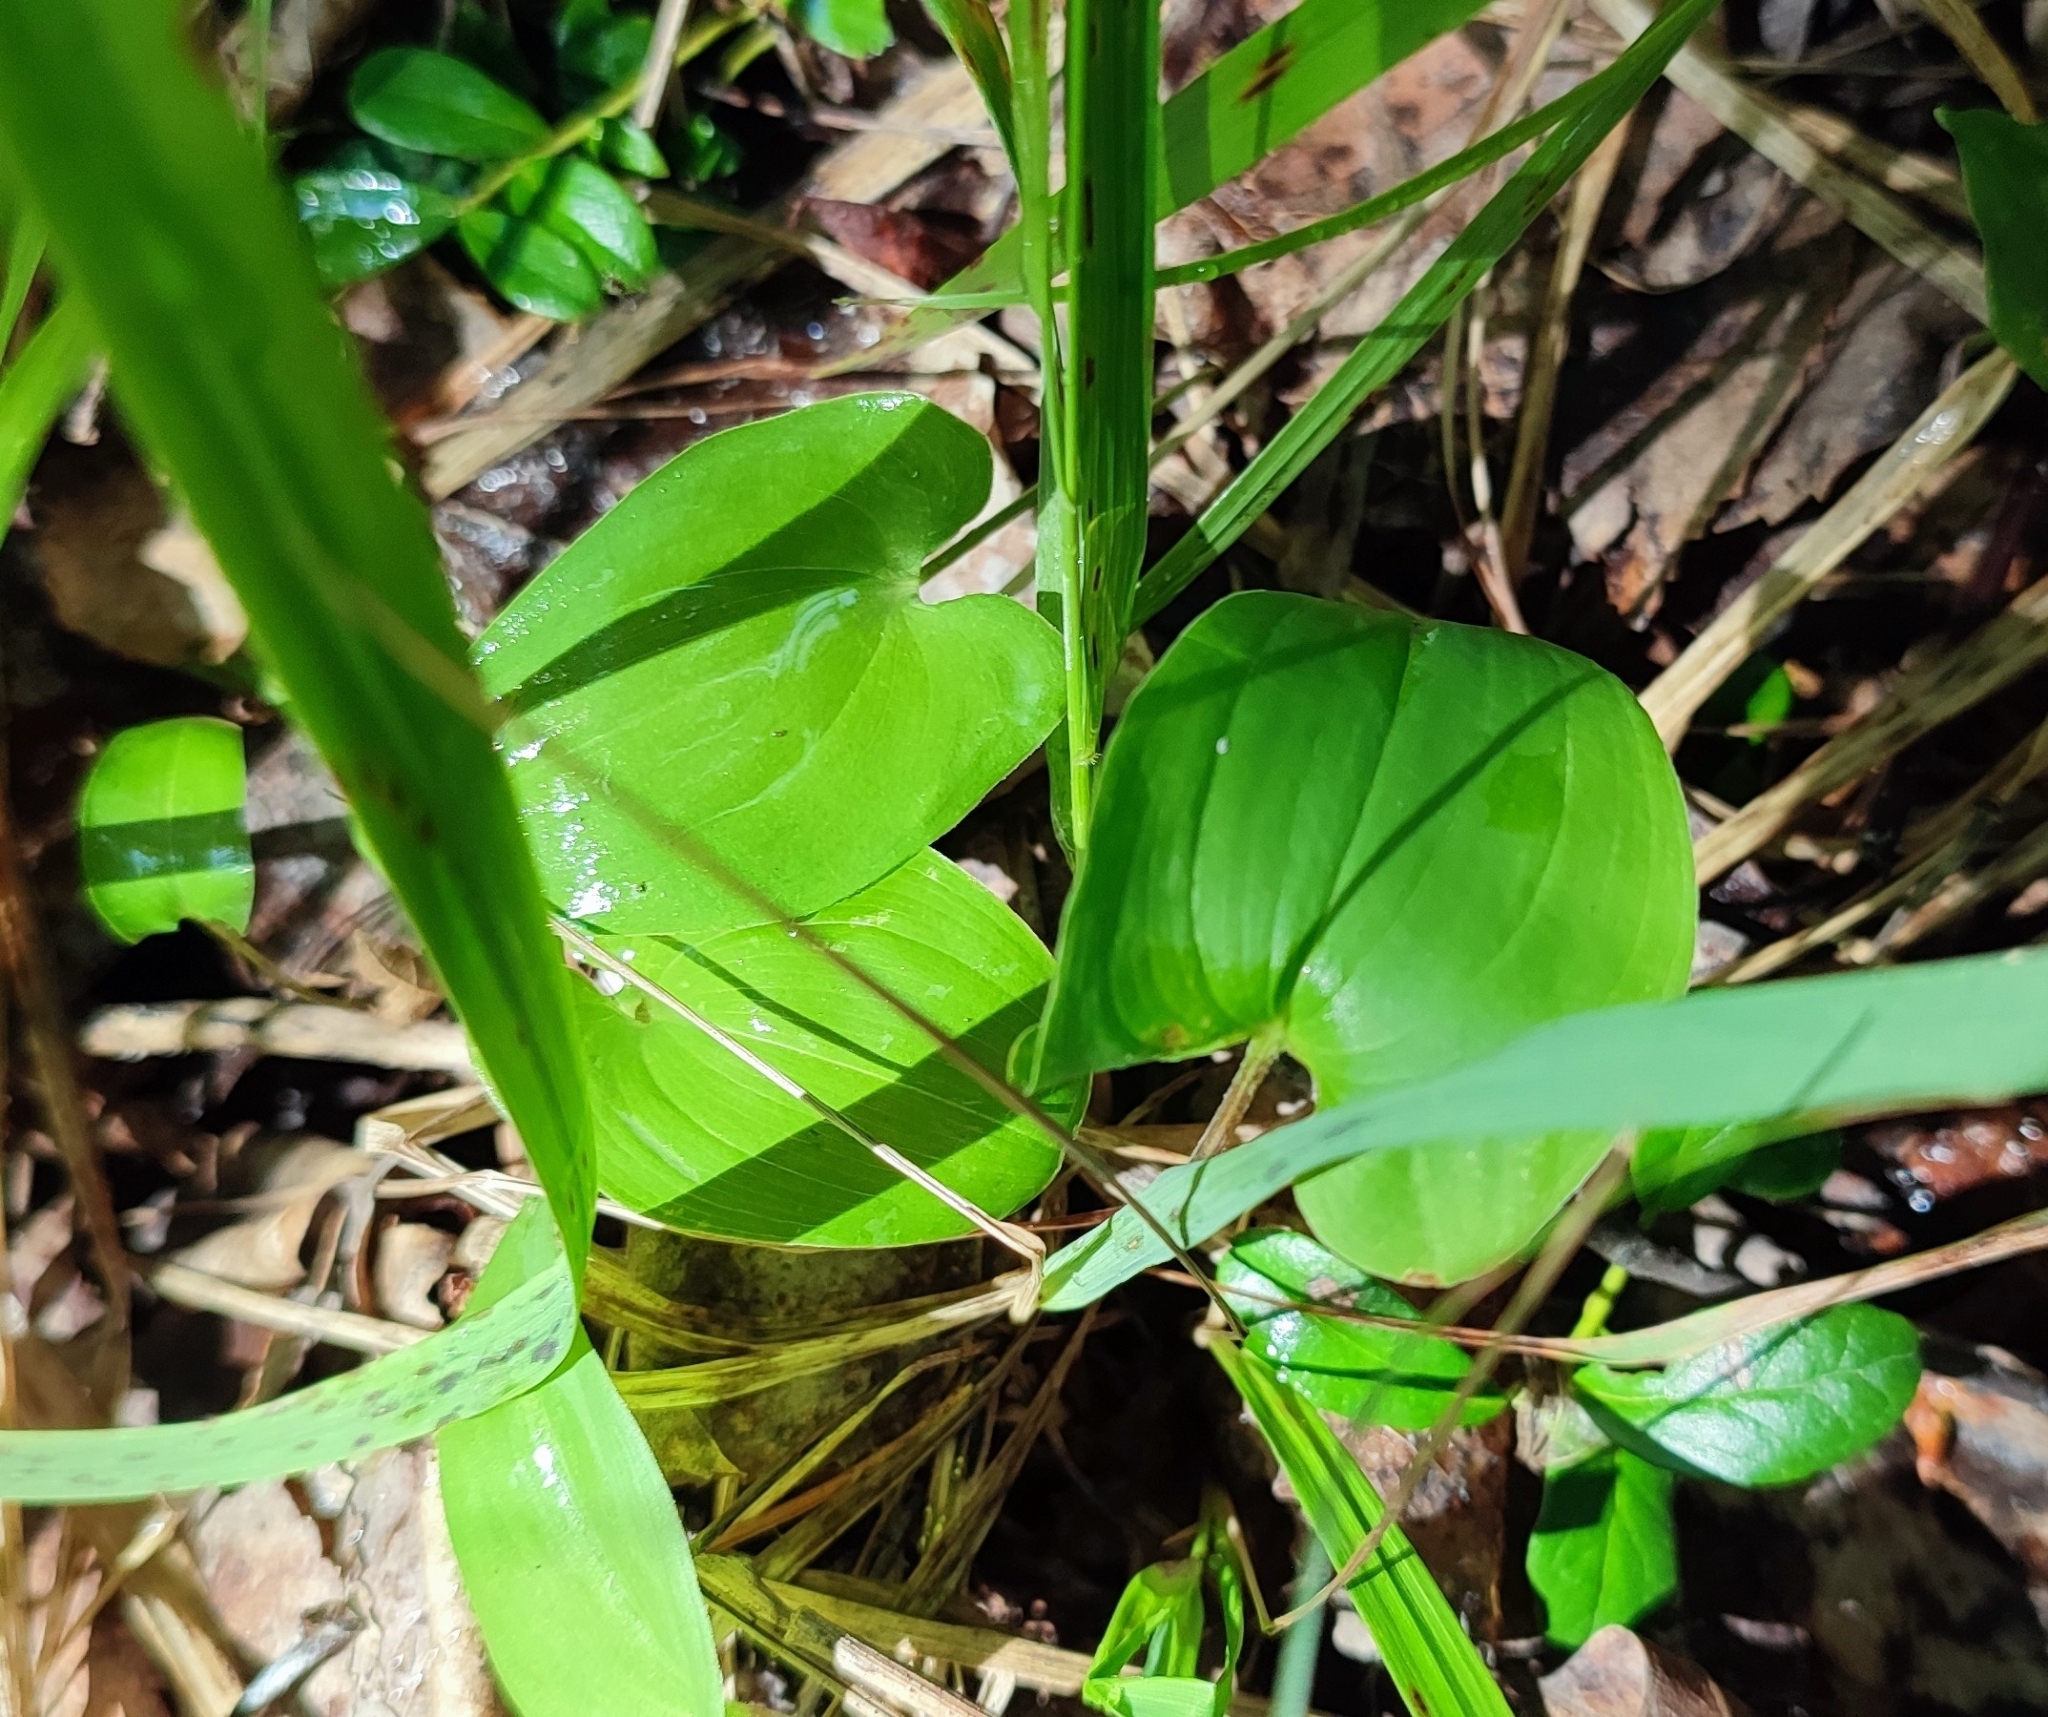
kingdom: Plantae
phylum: Tracheophyta
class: Liliopsida
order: Asparagales
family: Asparagaceae
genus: Maianthemum
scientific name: Maianthemum bifolium
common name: May lily
